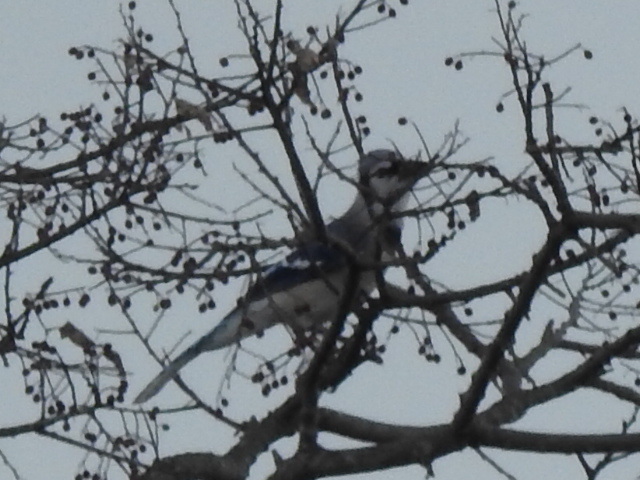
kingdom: Animalia
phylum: Chordata
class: Aves
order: Passeriformes
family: Corvidae
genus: Cyanocitta
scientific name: Cyanocitta cristata
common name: Blue jay
